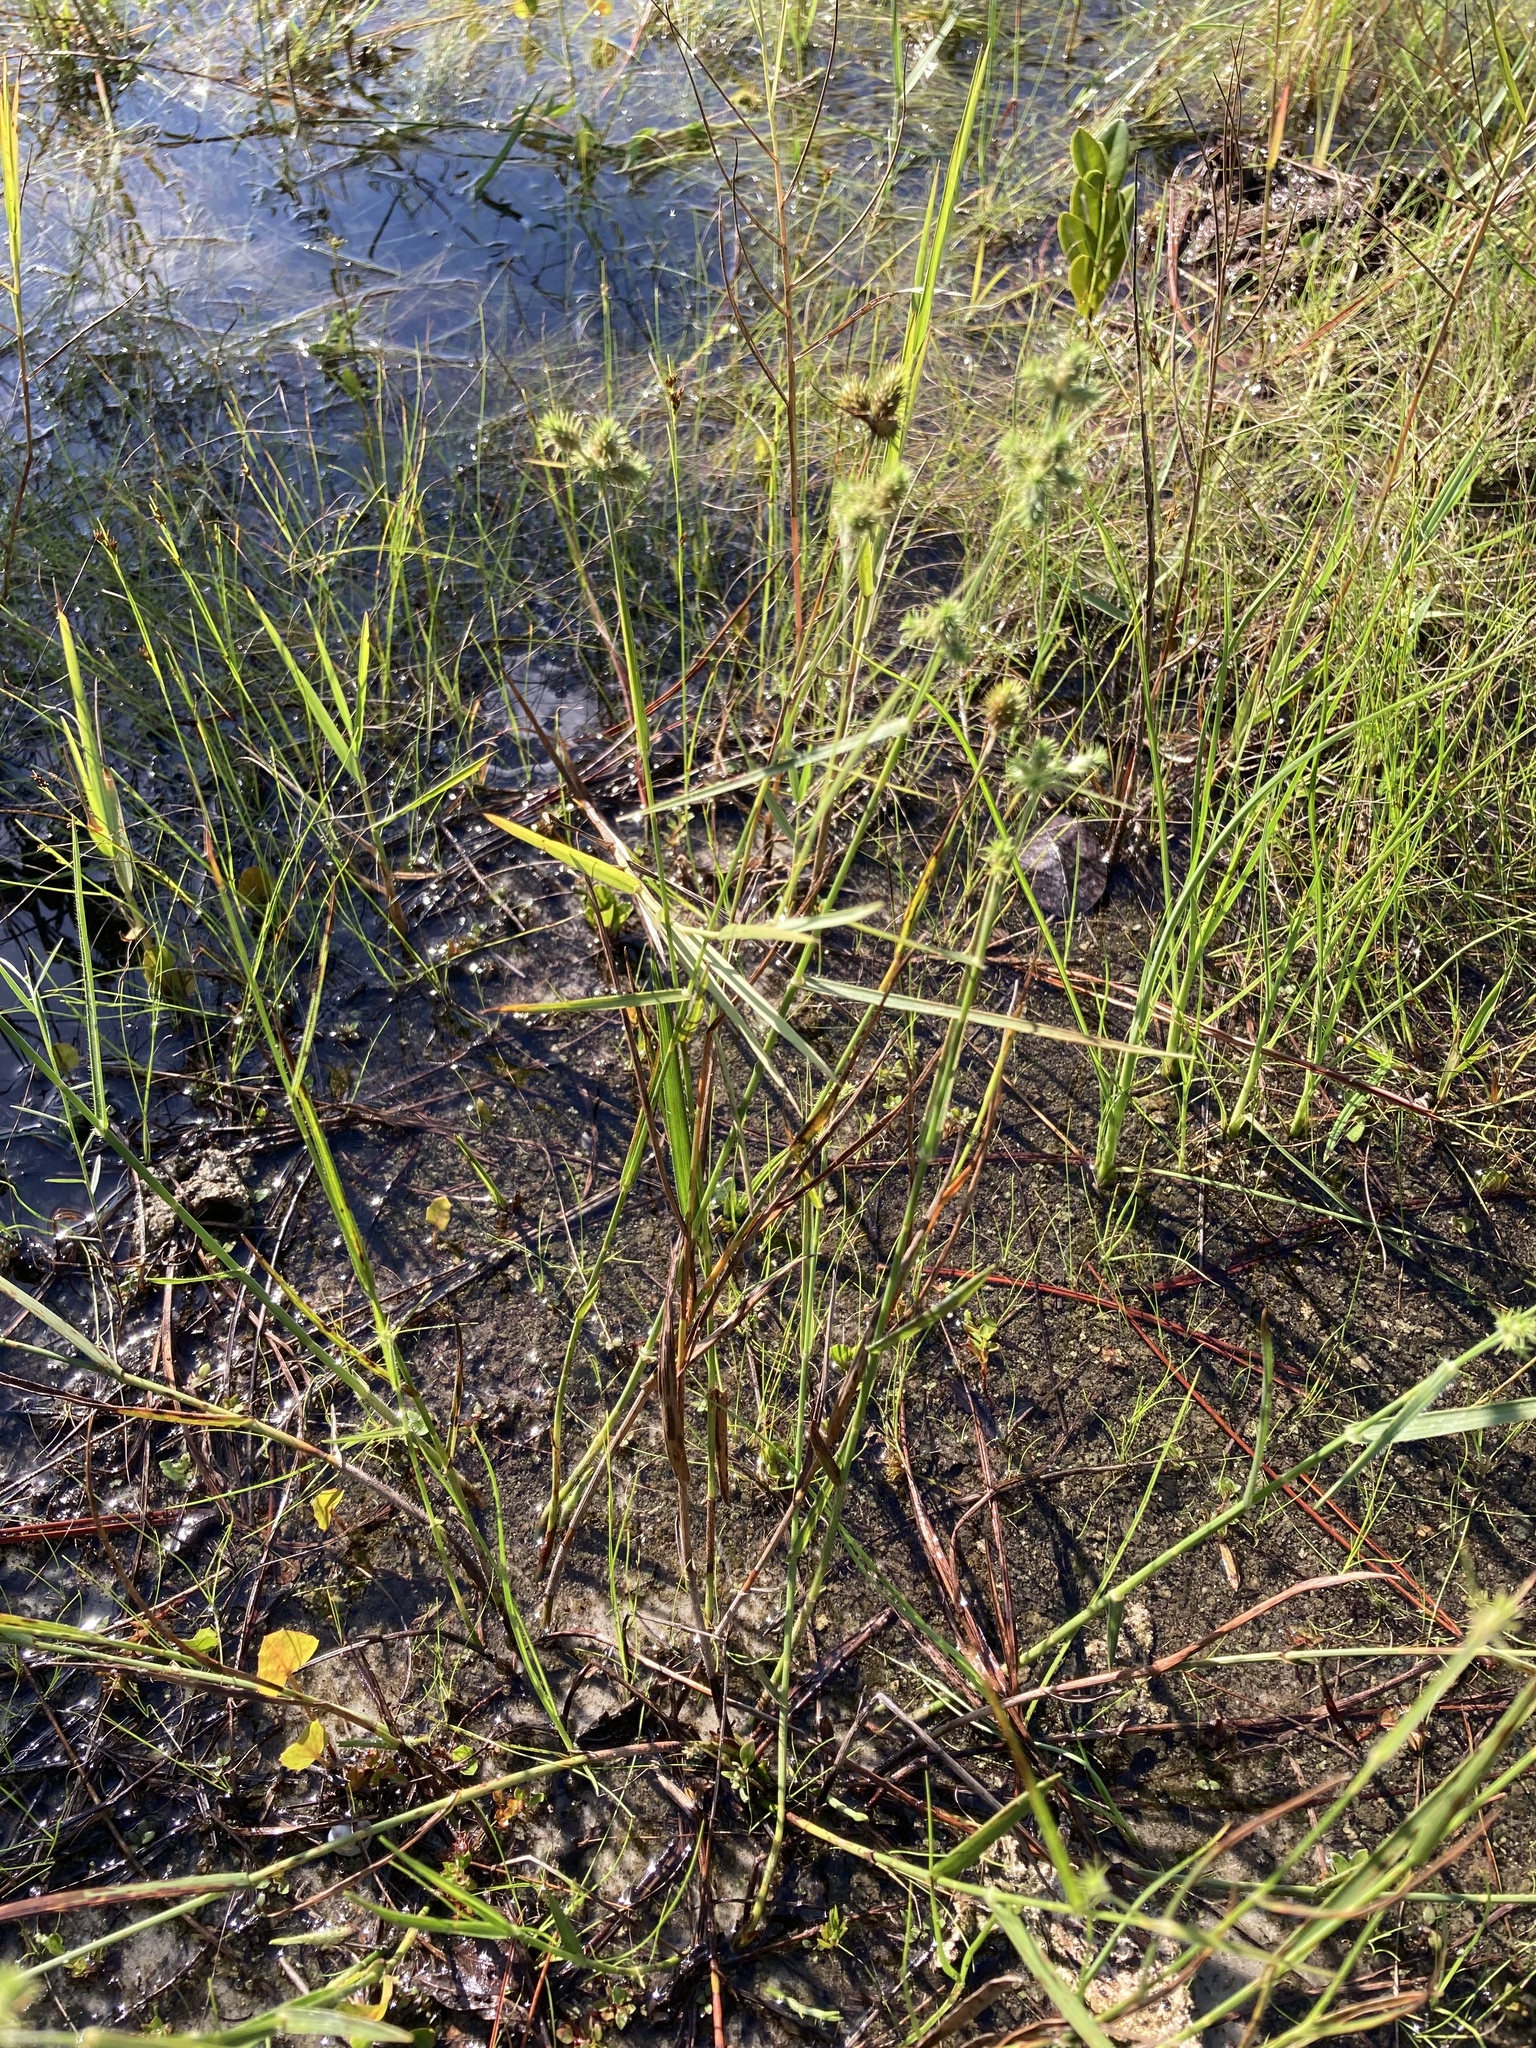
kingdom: Plantae
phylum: Tracheophyta
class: Liliopsida
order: Poales
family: Cyperaceae
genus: Fuirena
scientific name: Fuirena breviseta
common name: Saltmarsh umbrella sedge
